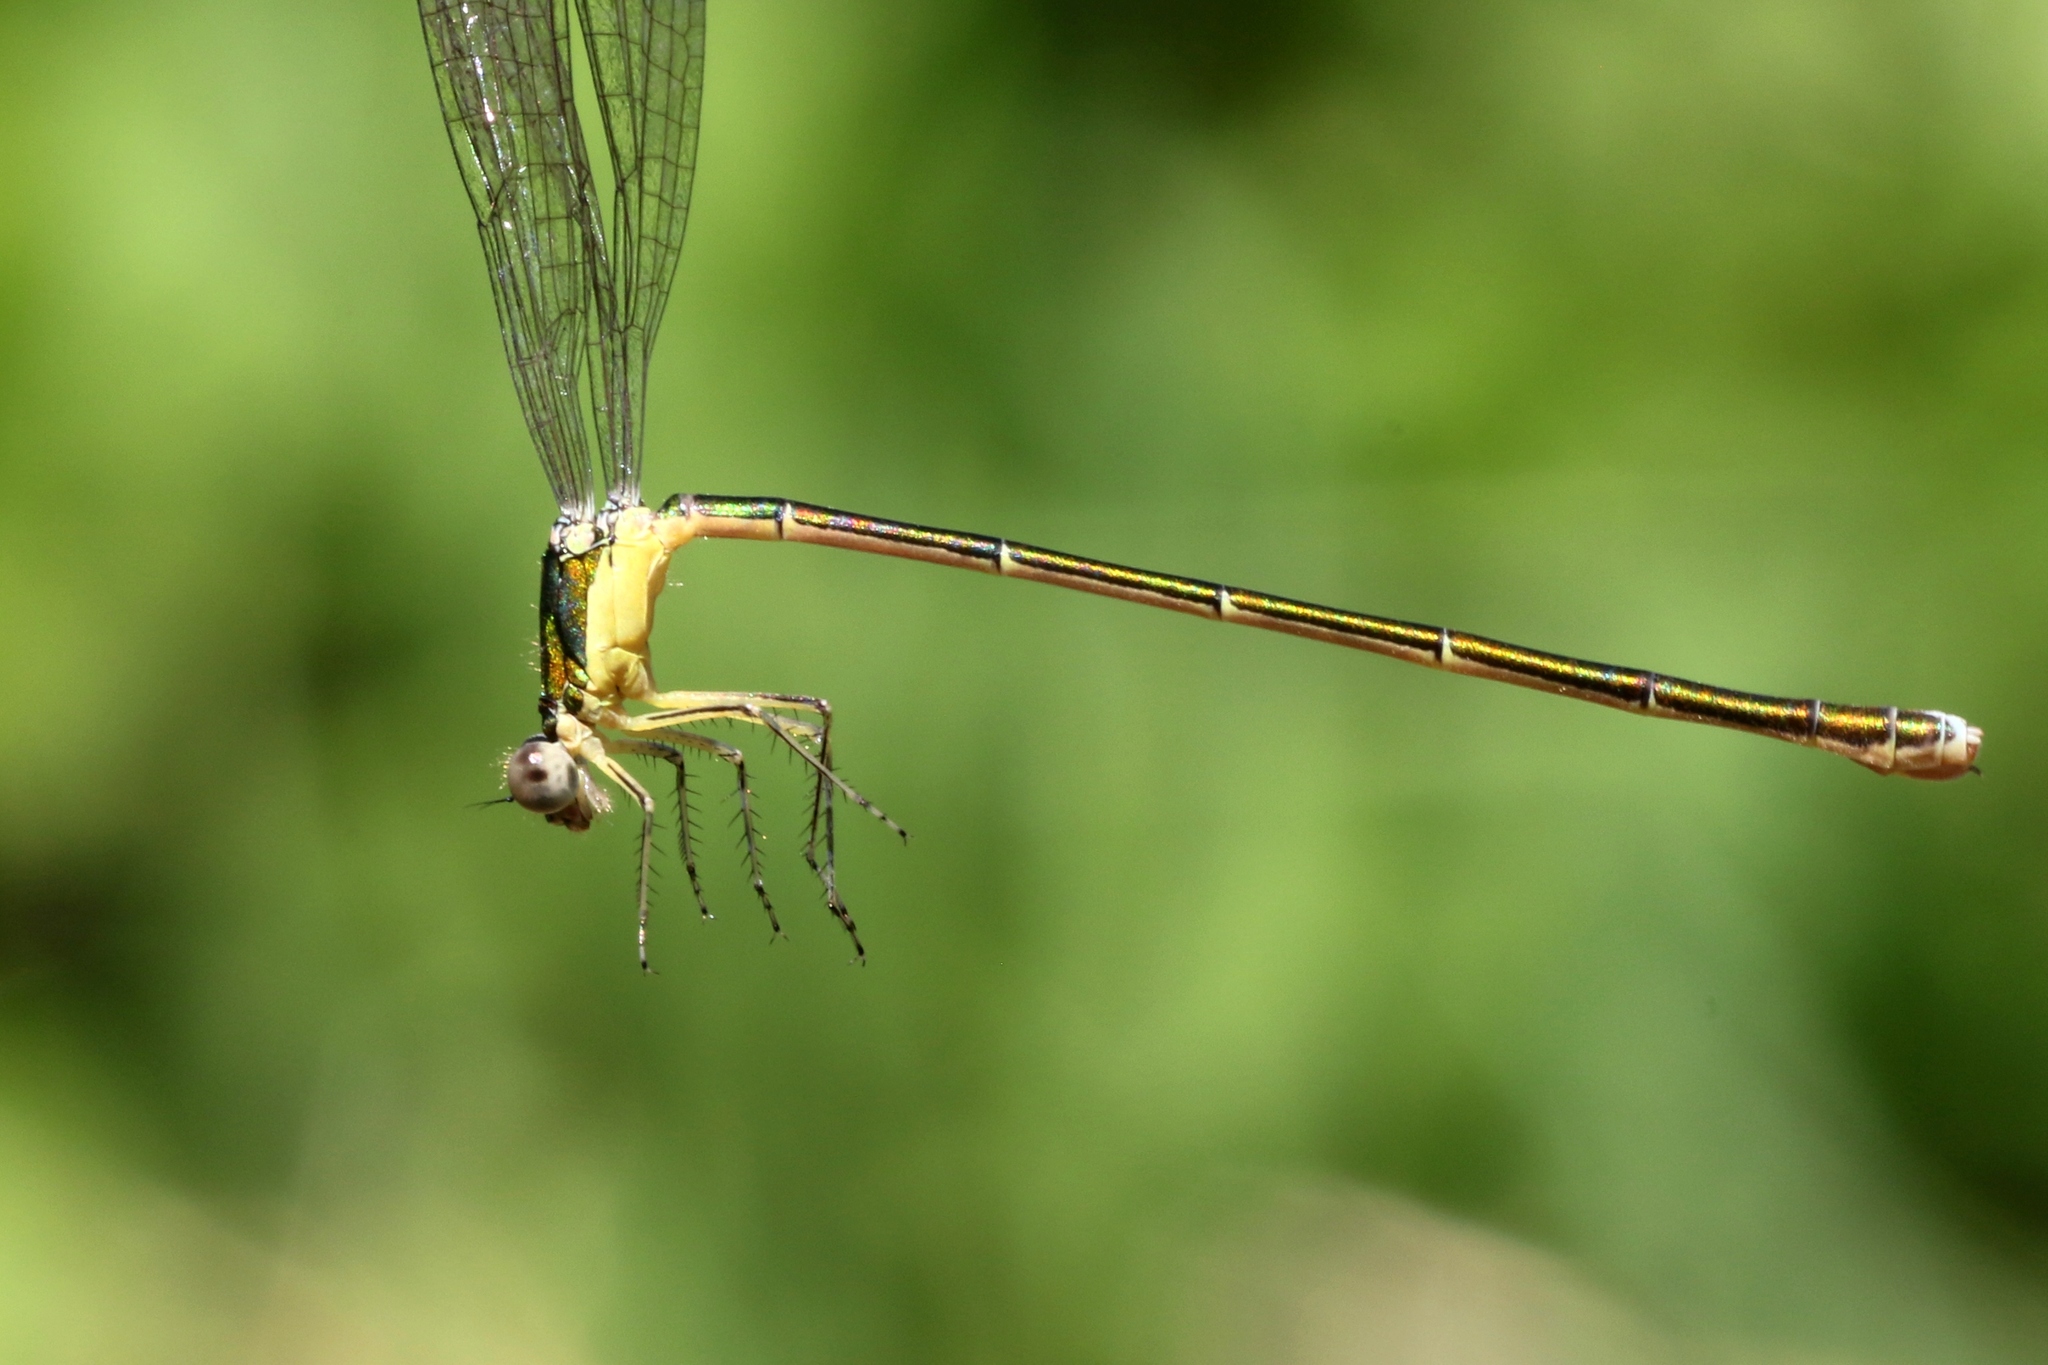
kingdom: Animalia
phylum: Arthropoda
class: Insecta
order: Odonata
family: Coenagrionidae
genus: Nehalennia
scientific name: Nehalennia irene
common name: Sedge sprite
